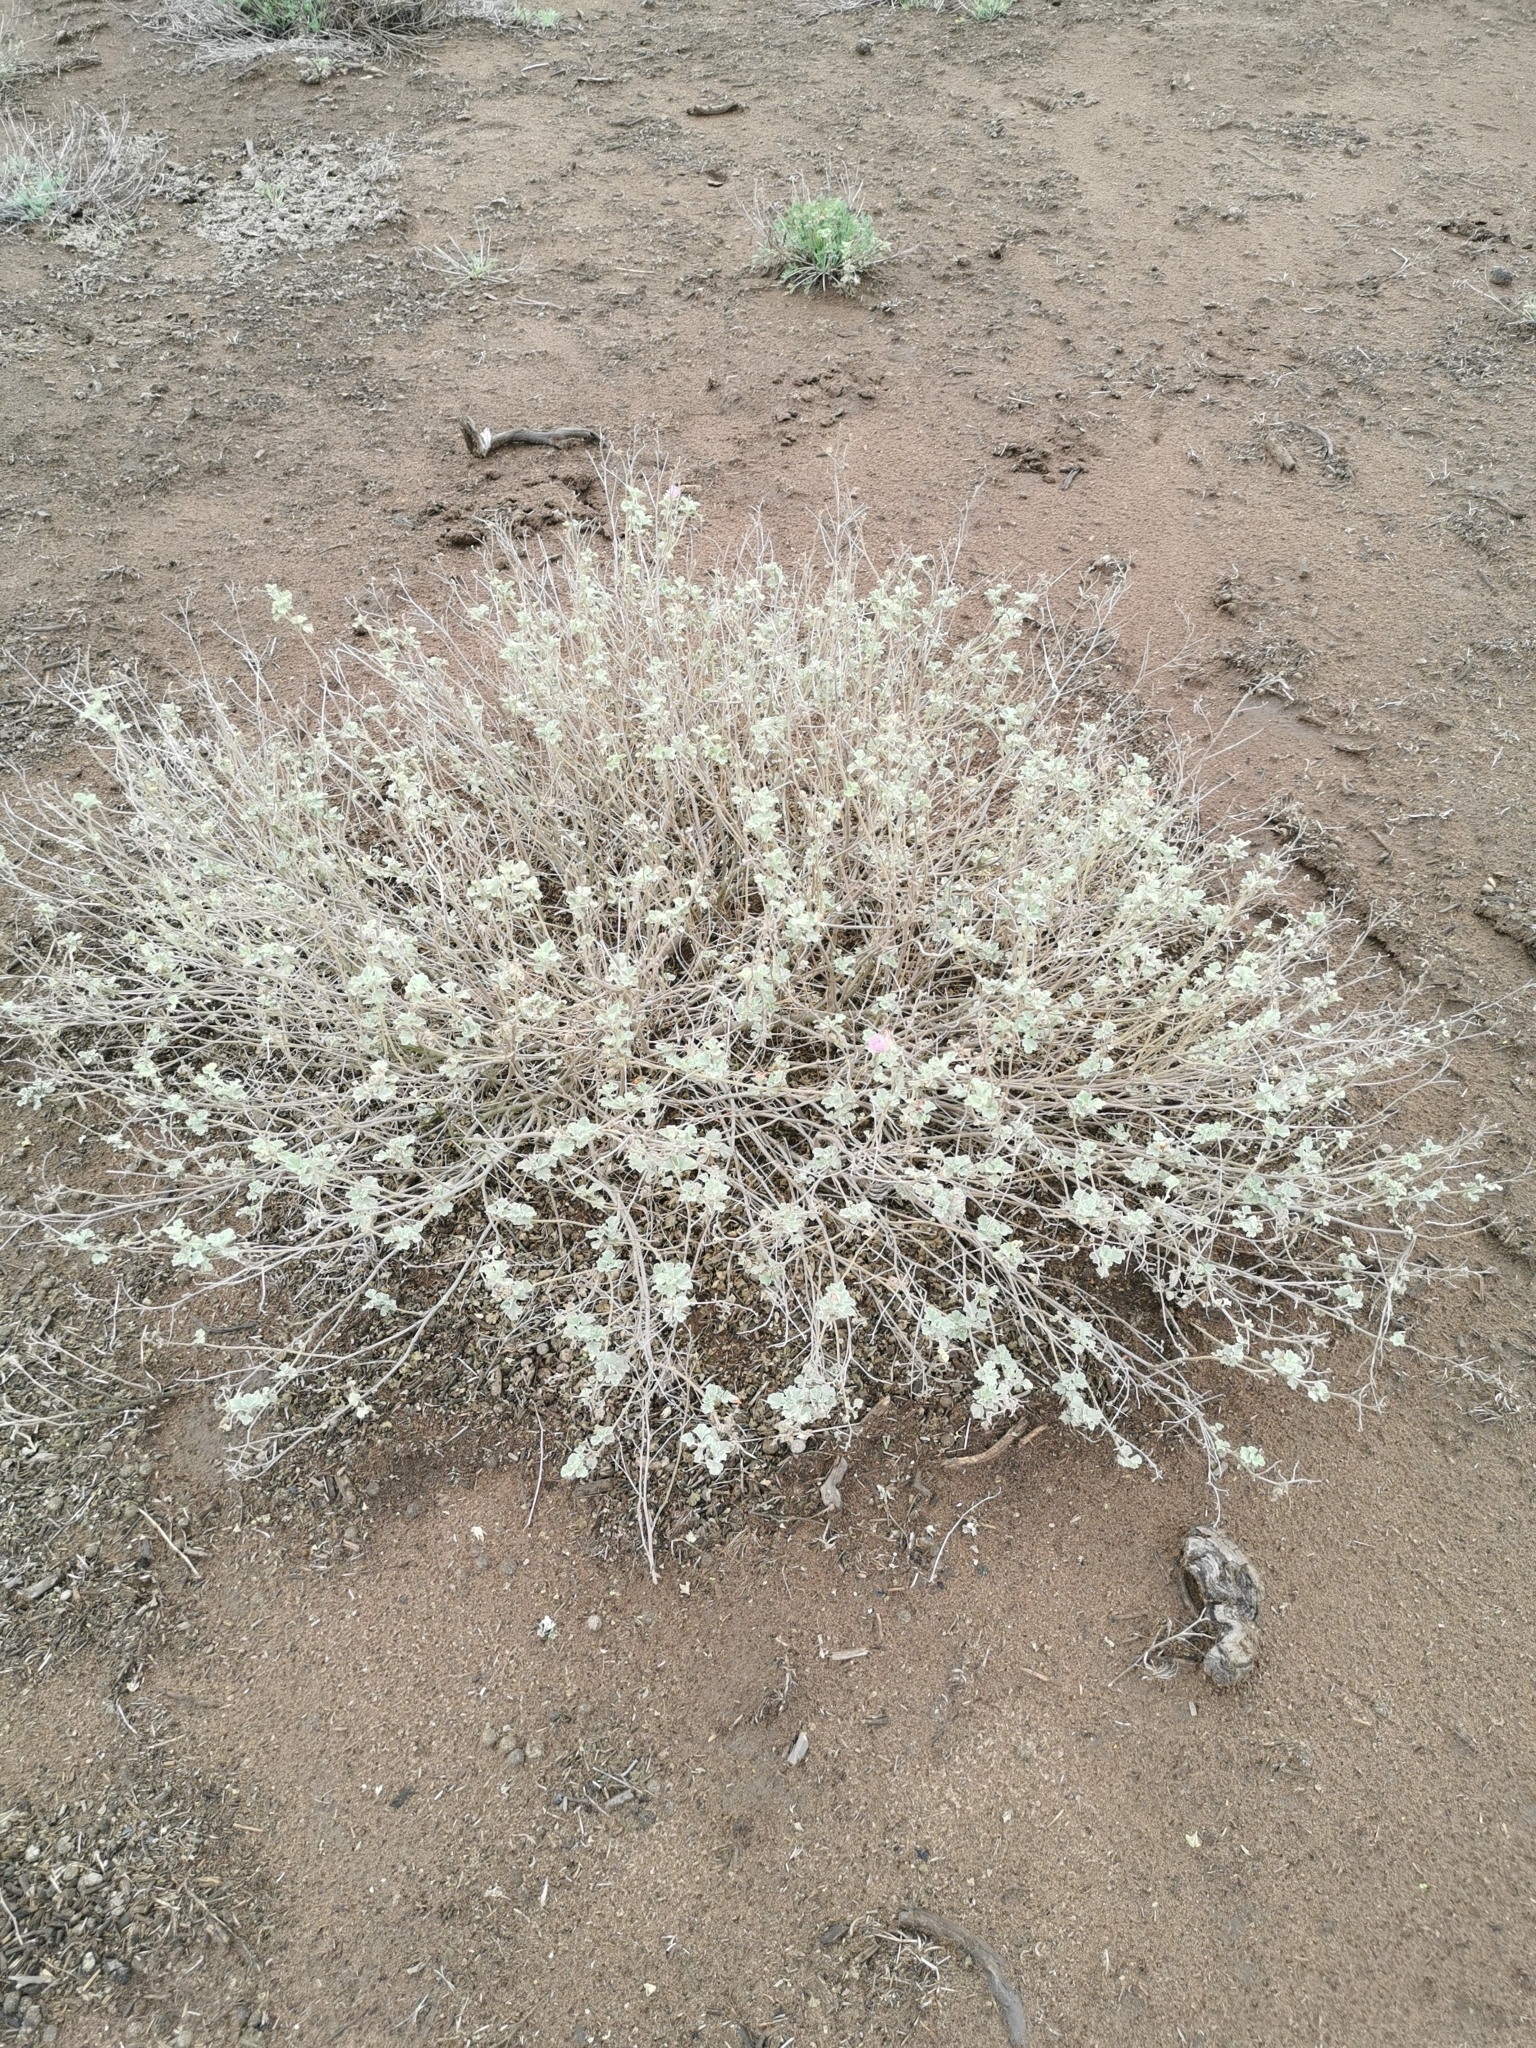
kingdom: Plantae
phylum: Tracheophyta
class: Magnoliopsida
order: Malvales
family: Malvaceae
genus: Sphaeralcea
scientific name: Sphaeralcea obtusiloba
